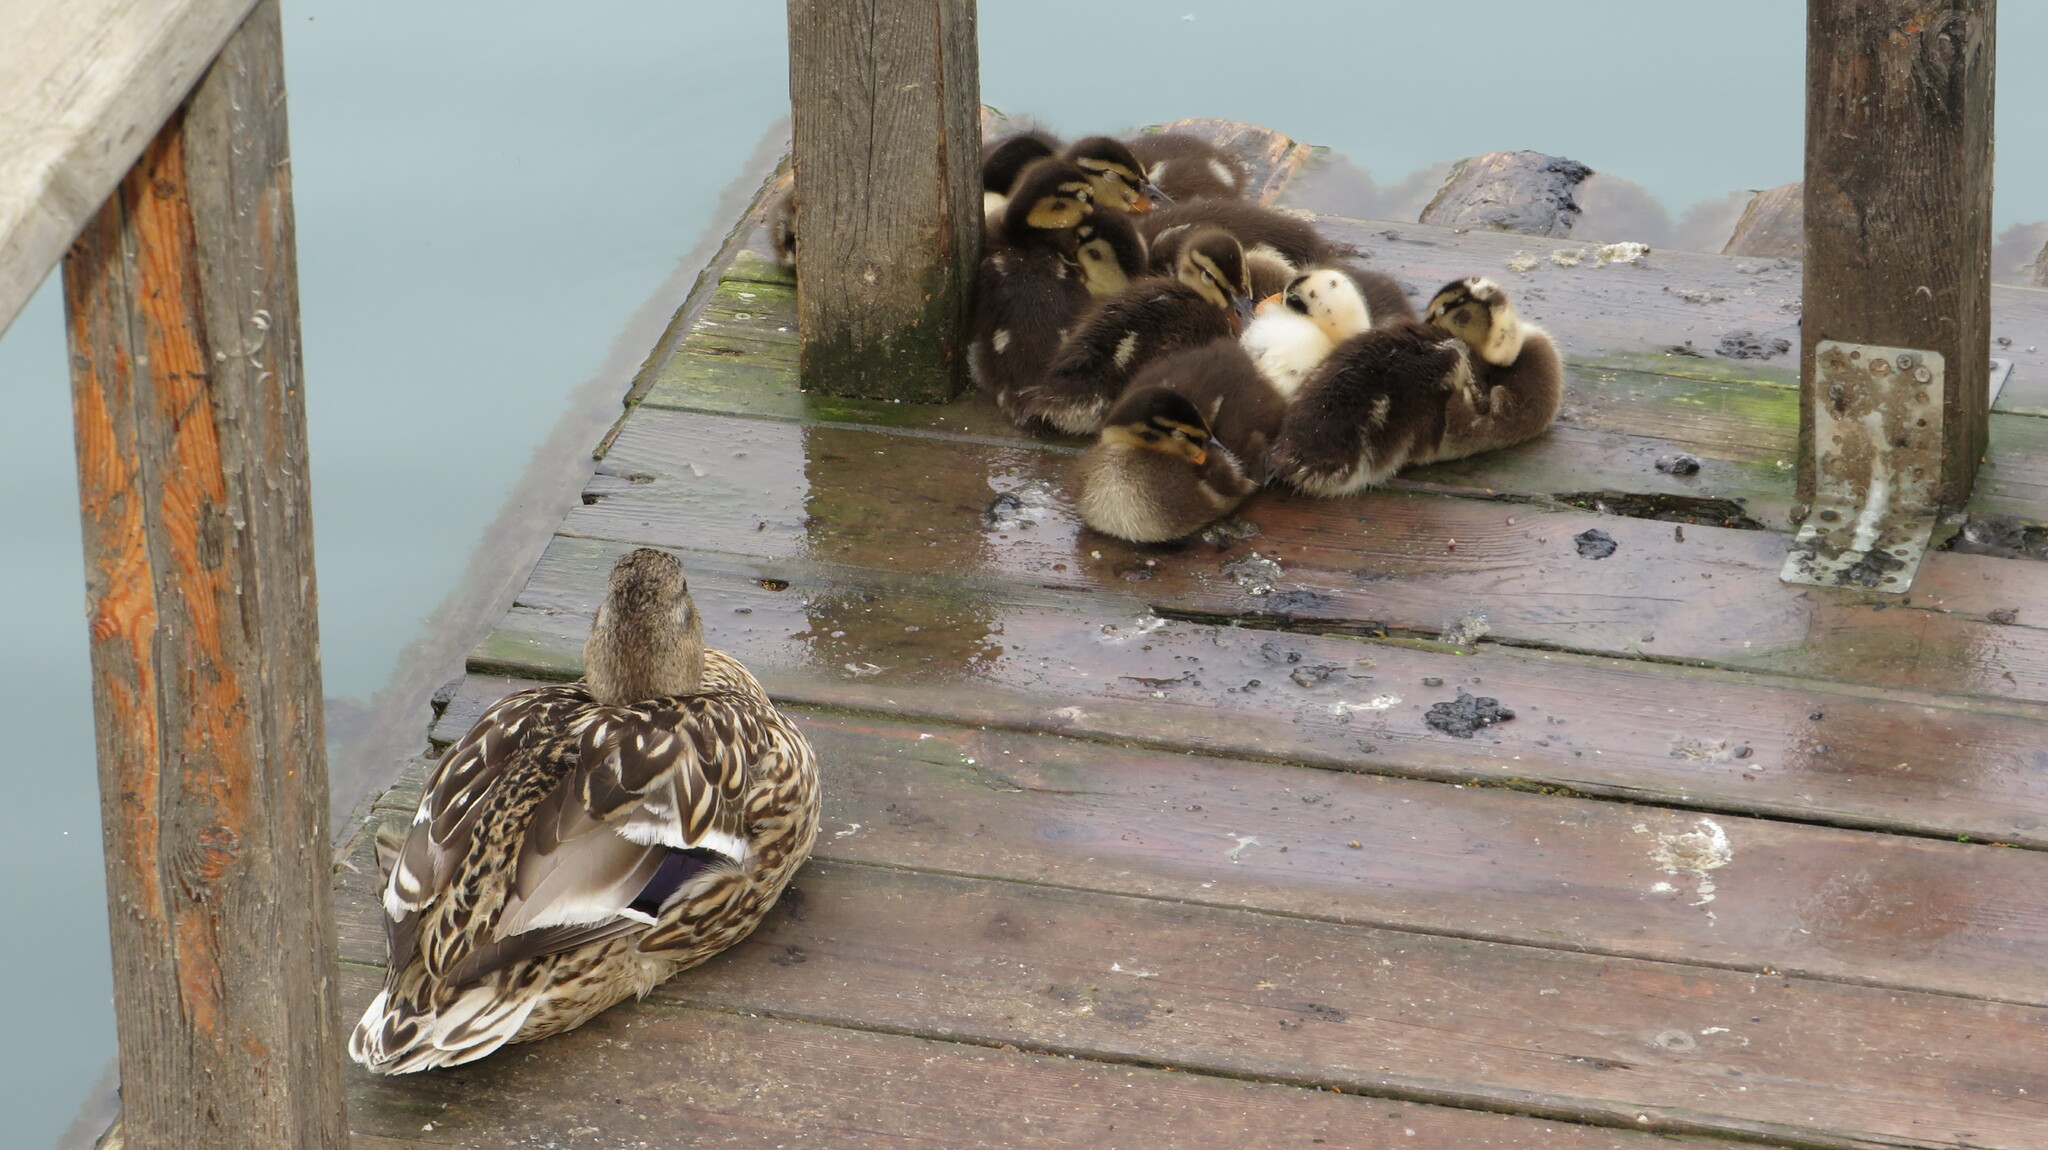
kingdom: Animalia
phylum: Chordata
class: Aves
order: Anseriformes
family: Anatidae
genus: Anas
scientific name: Anas platyrhynchos
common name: Mallard
